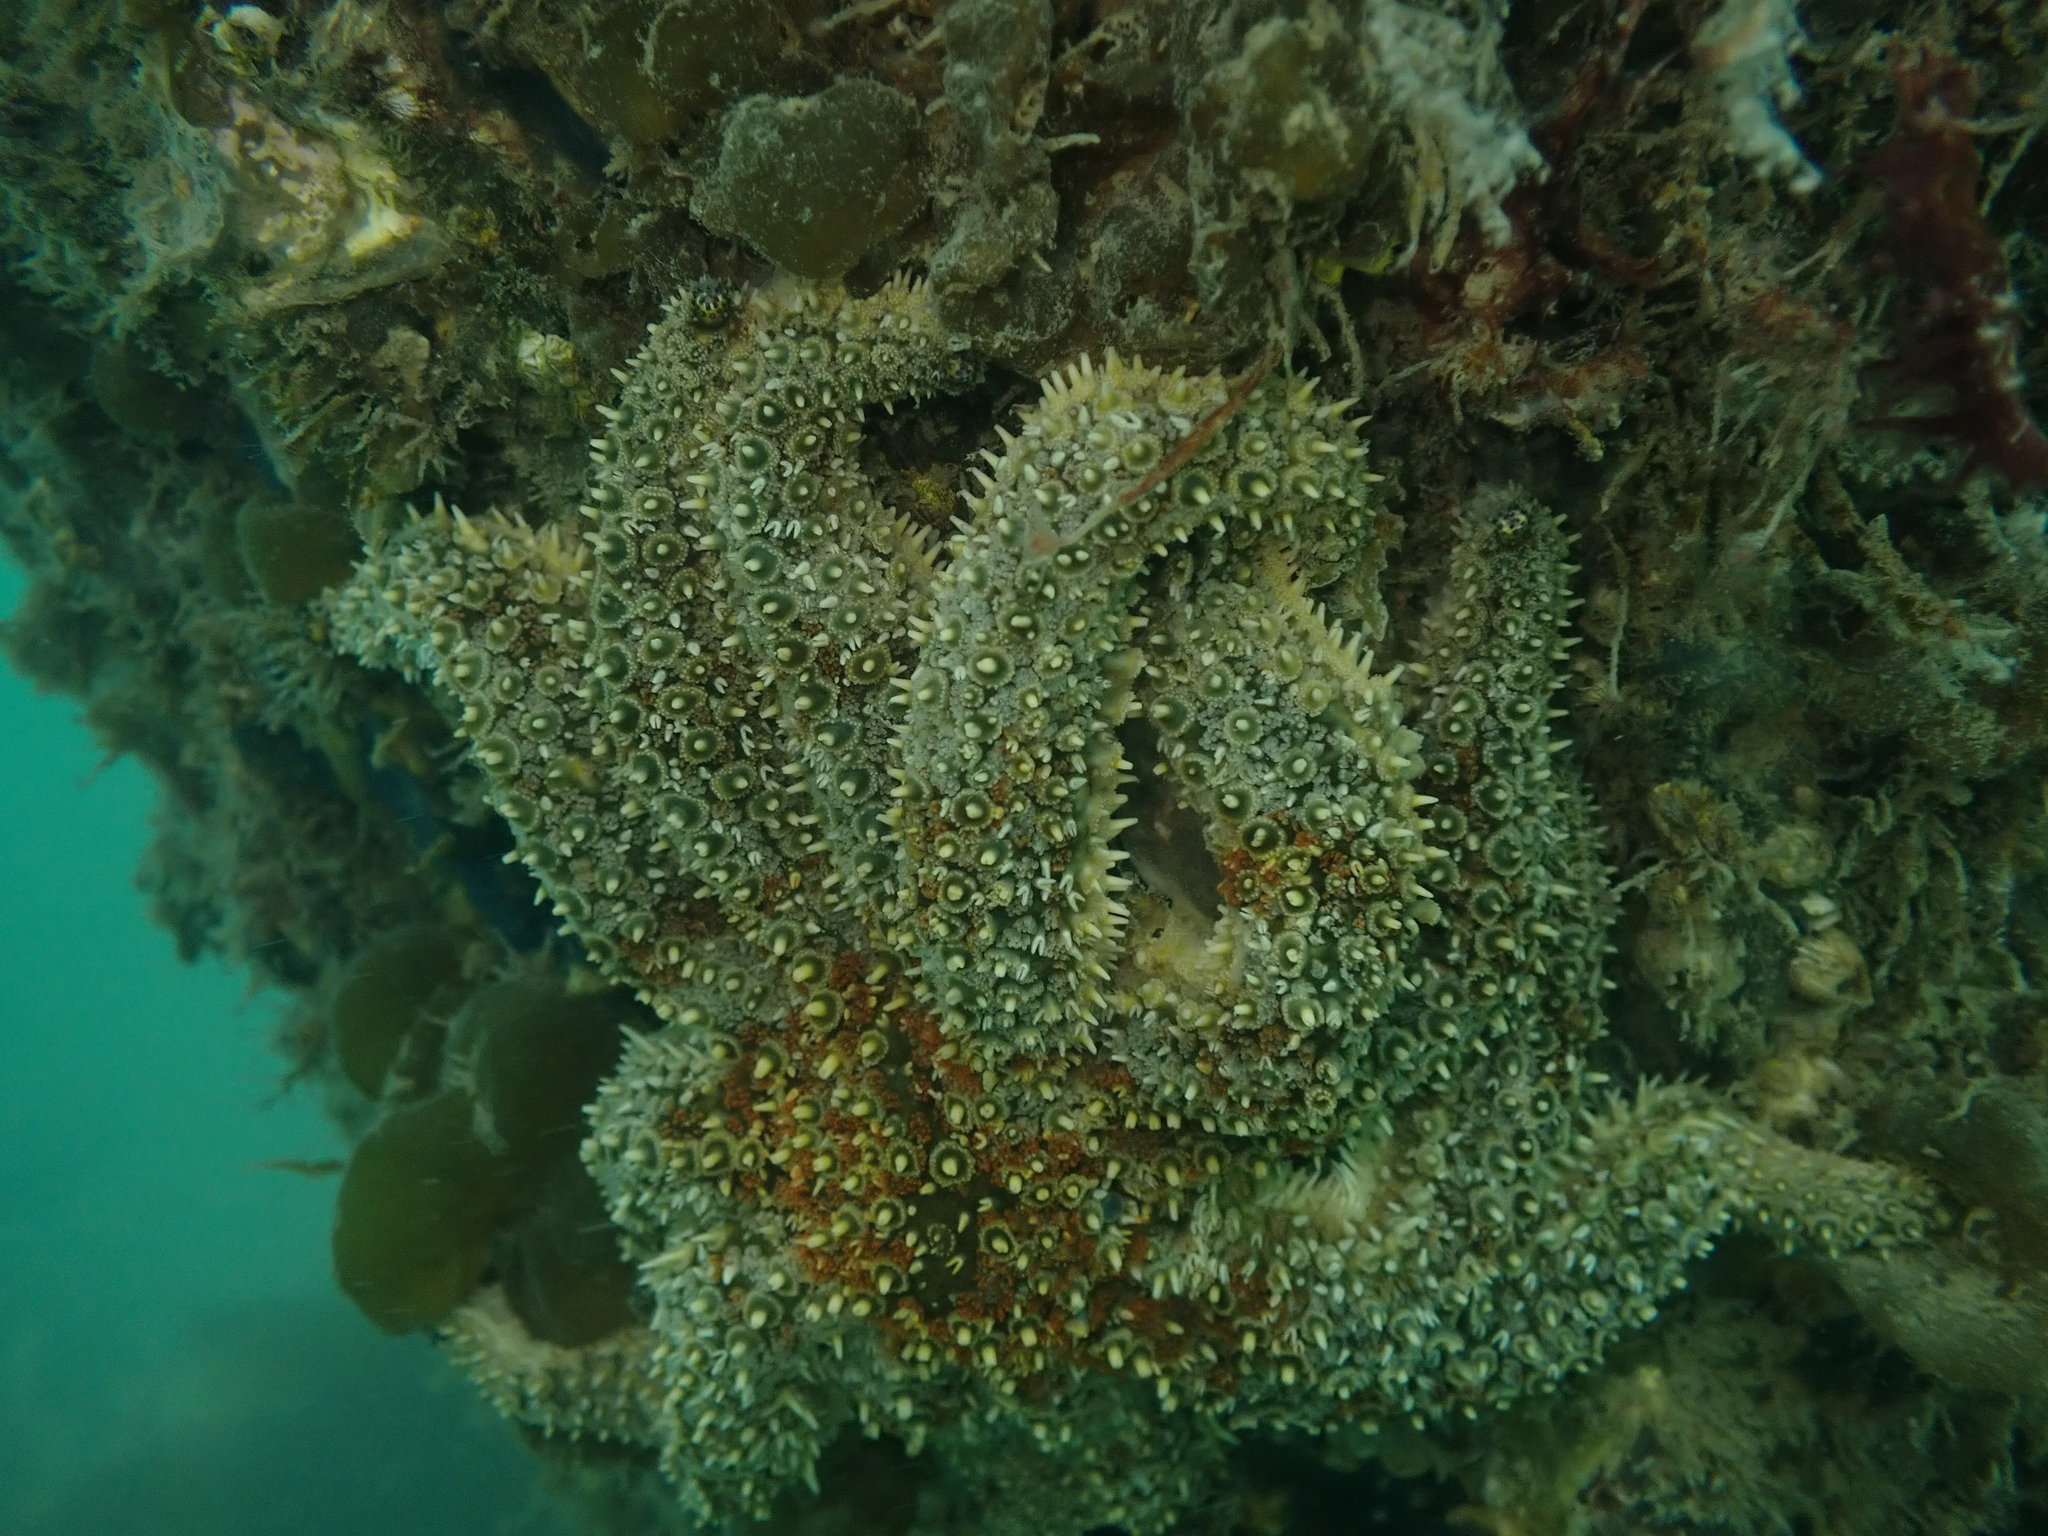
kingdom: Animalia
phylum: Echinodermata
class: Asteroidea
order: Forcipulatida
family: Asteriidae
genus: Coscinasterias
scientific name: Coscinasterias muricata
